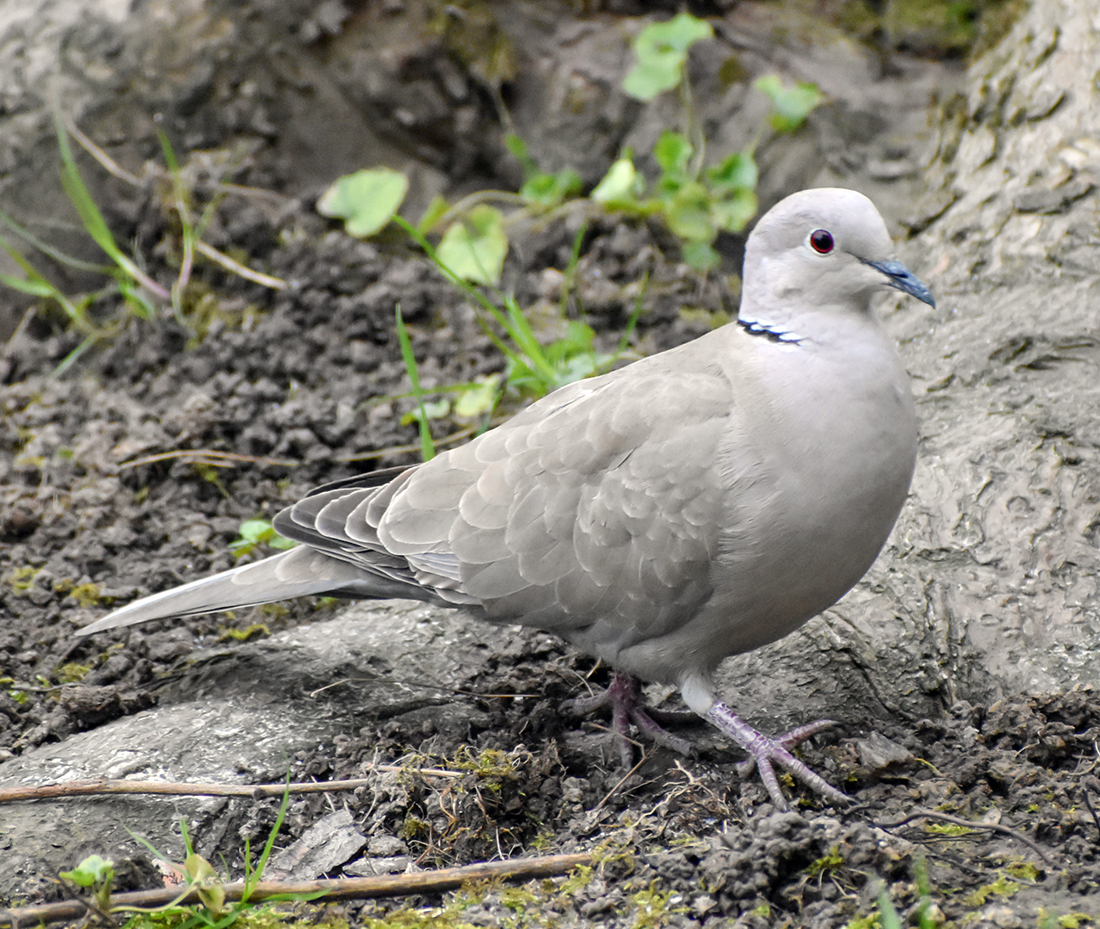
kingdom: Animalia
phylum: Chordata
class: Aves
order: Columbiformes
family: Columbidae
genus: Streptopelia
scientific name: Streptopelia decaocto
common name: Eurasian collared dove
